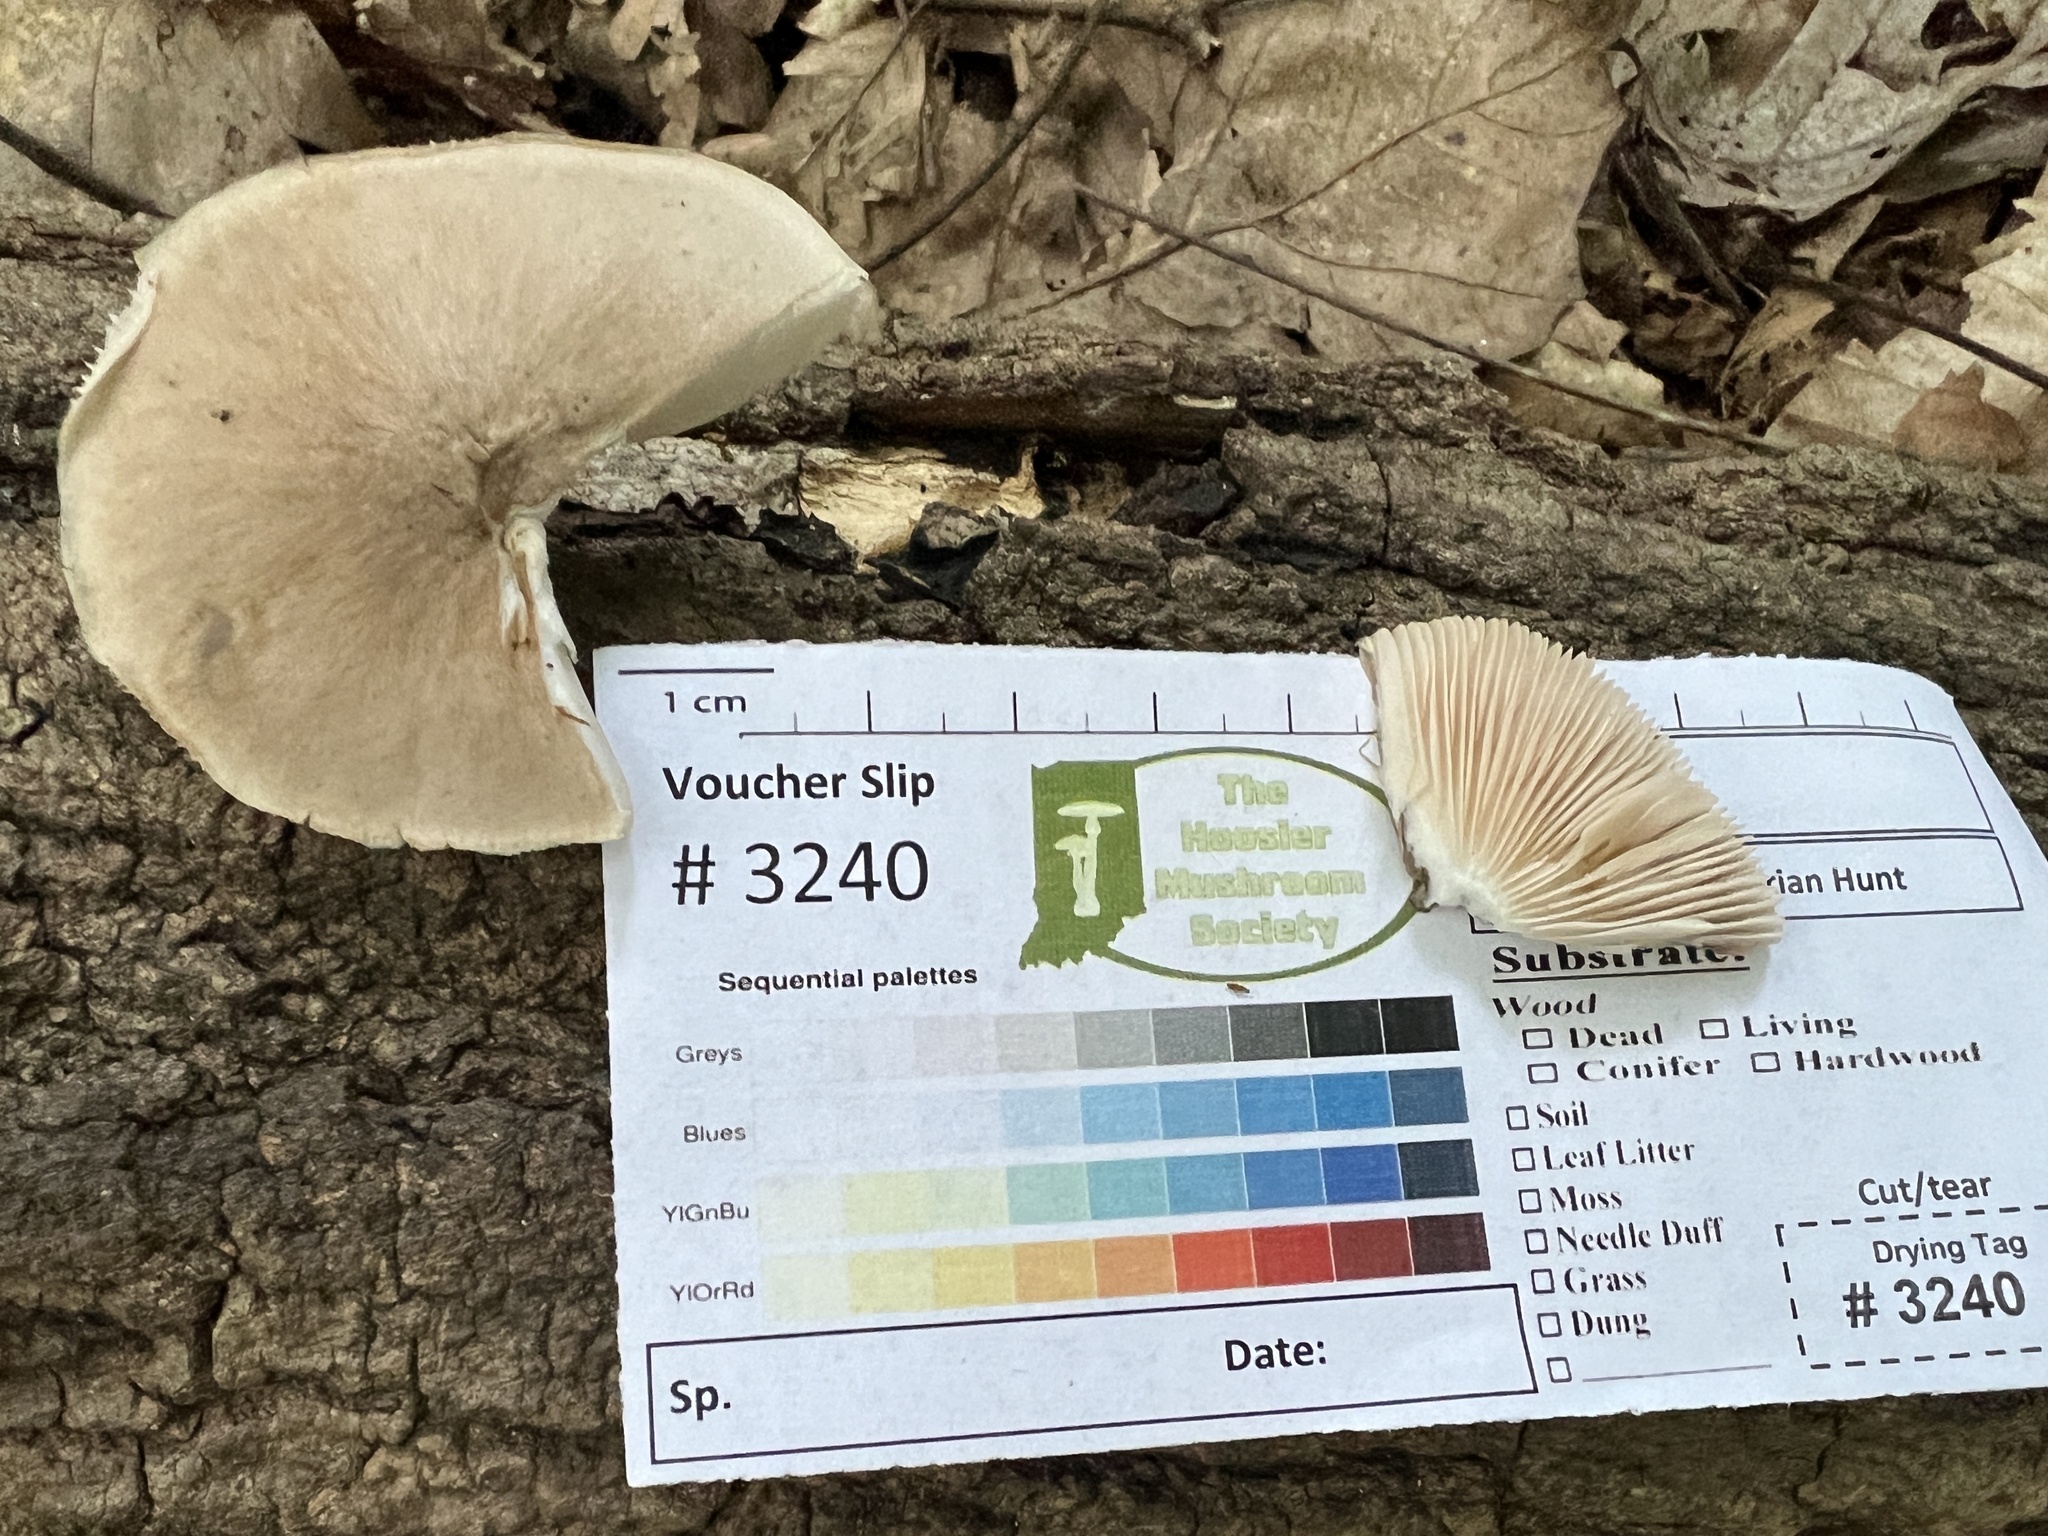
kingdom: Fungi
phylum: Basidiomycota
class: Agaricomycetes
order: Agaricales
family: Pluteaceae
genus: Pluteus
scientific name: Pluteus petasatus
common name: Scaly shield
